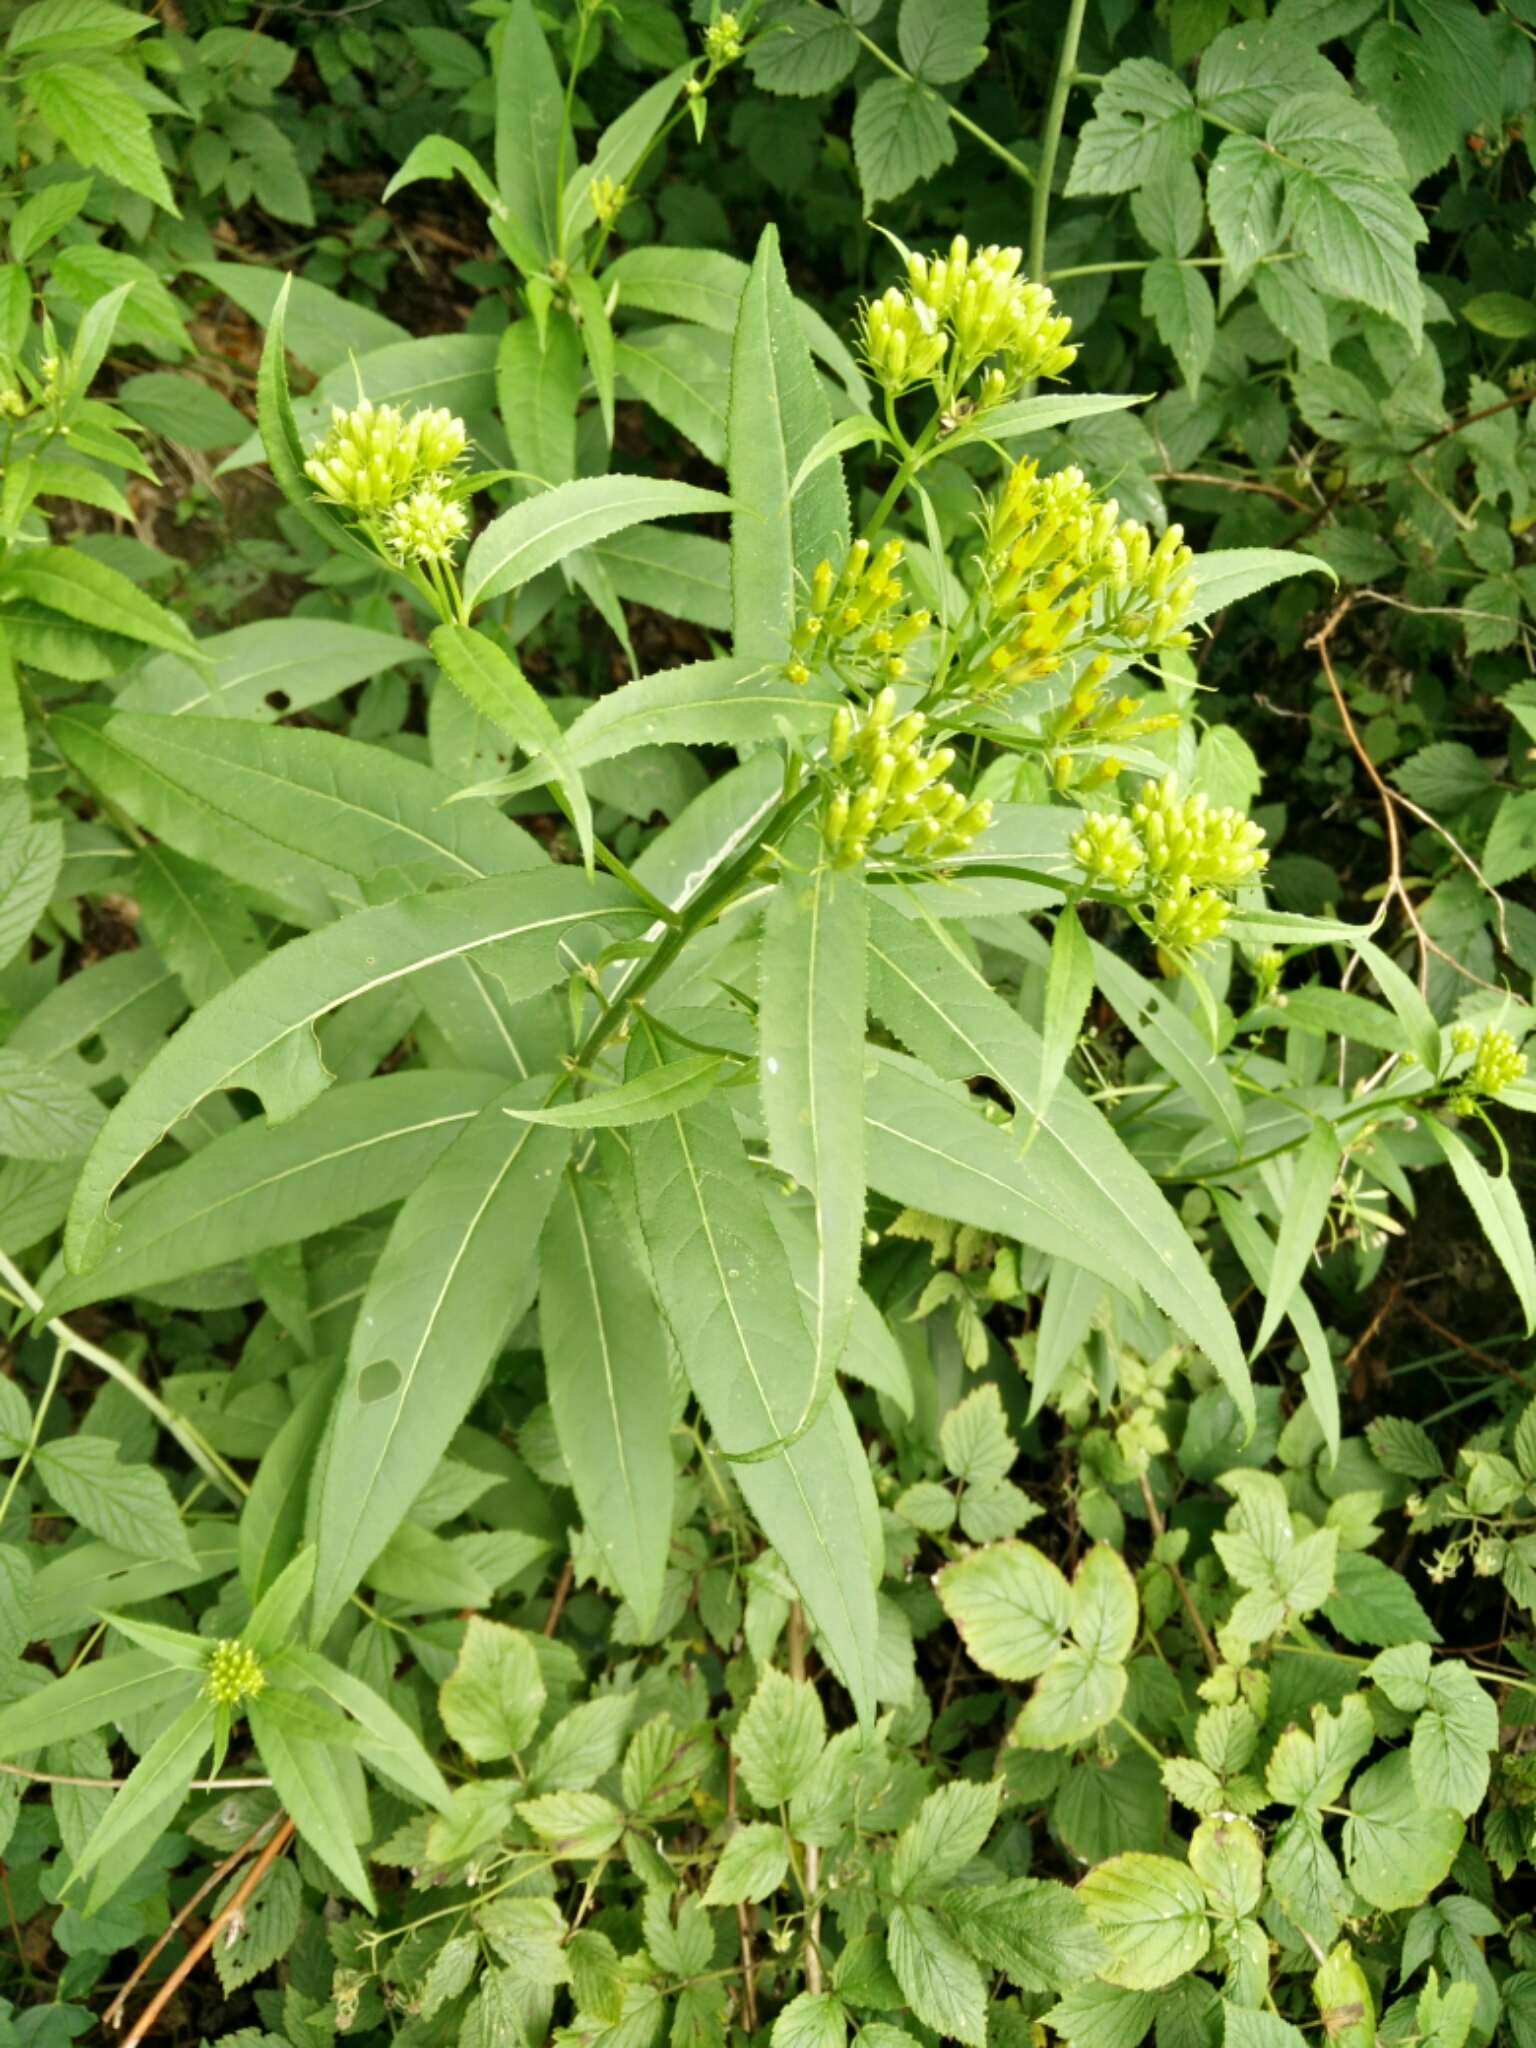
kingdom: Plantae
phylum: Tracheophyta
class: Magnoliopsida
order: Asterales
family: Asteraceae
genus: Senecio
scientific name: Senecio ovatus
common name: Wood ragwort
